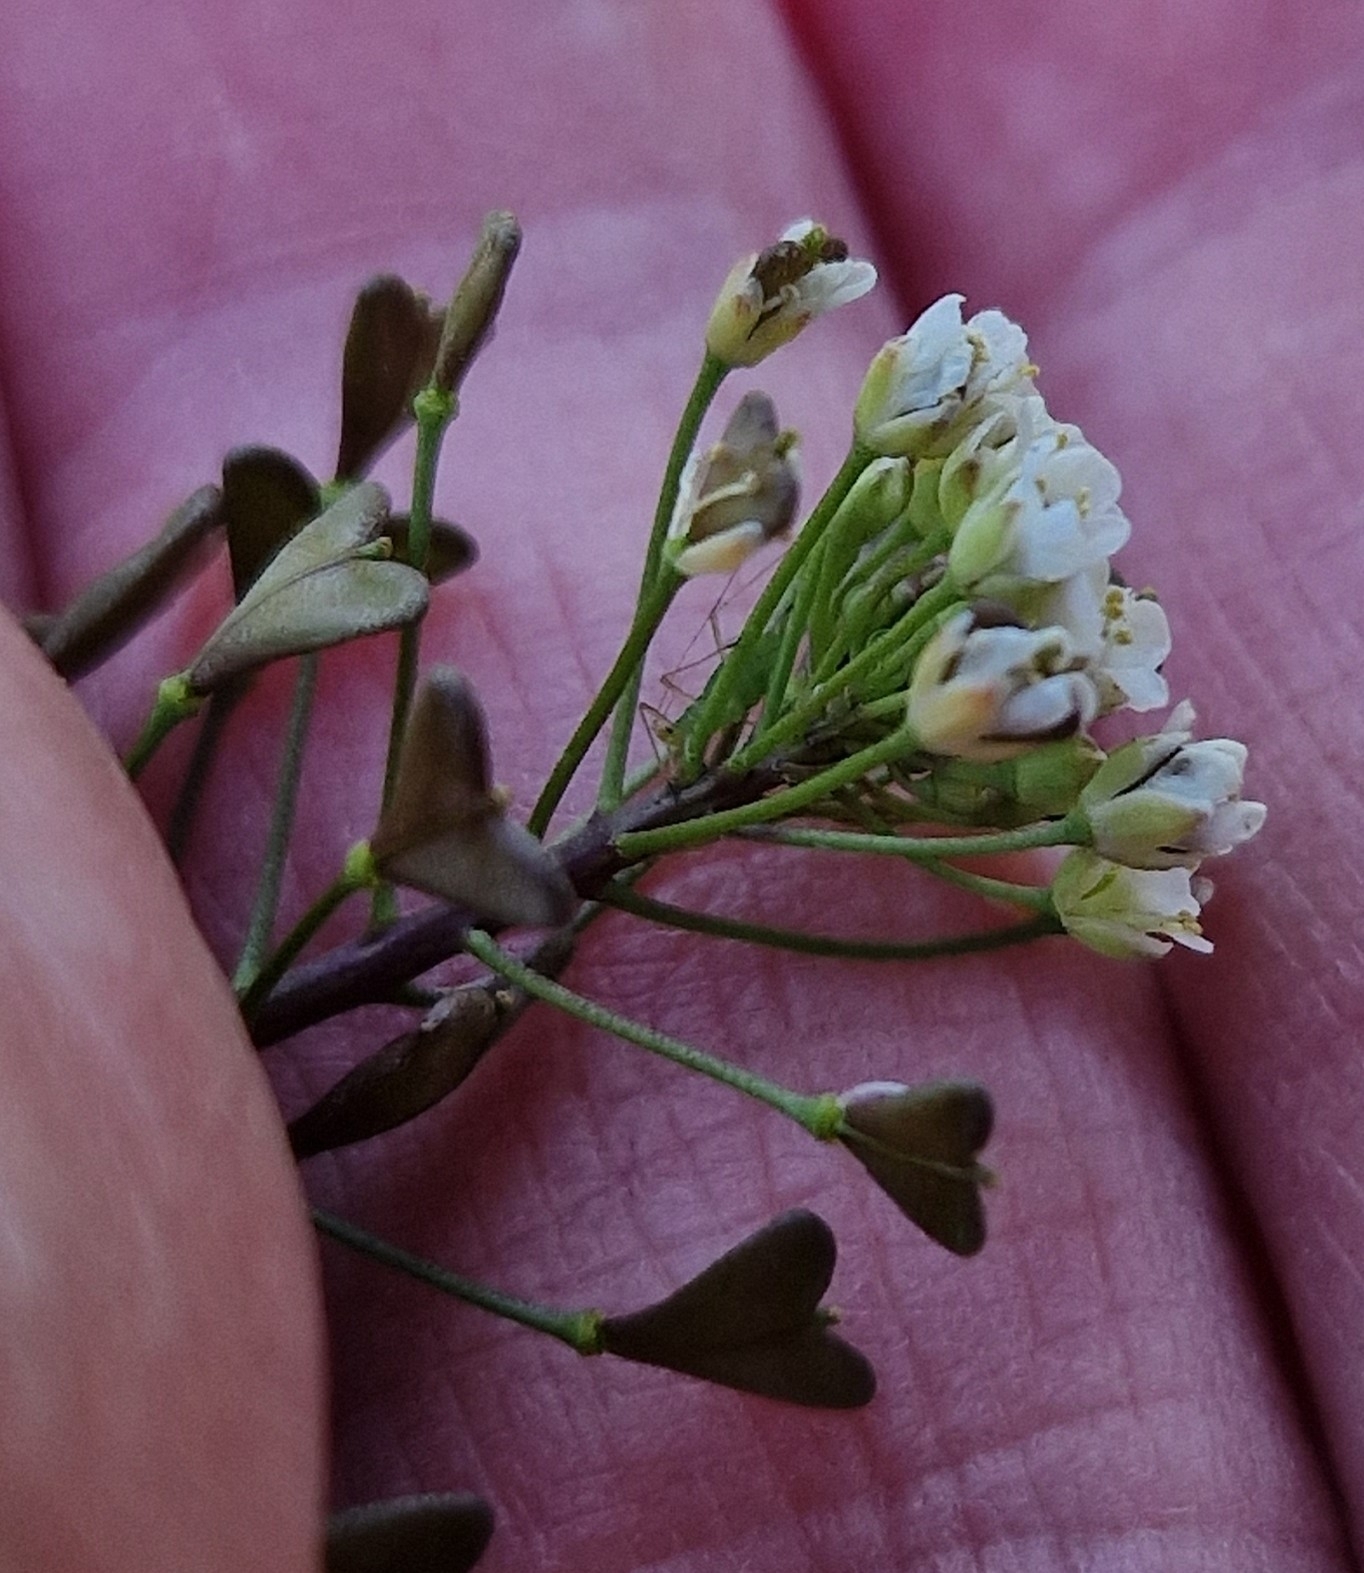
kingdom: Plantae
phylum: Tracheophyta
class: Magnoliopsida
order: Brassicales
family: Brassicaceae
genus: Capsella
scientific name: Capsella bursa-pastoris
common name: Shepherd's purse
